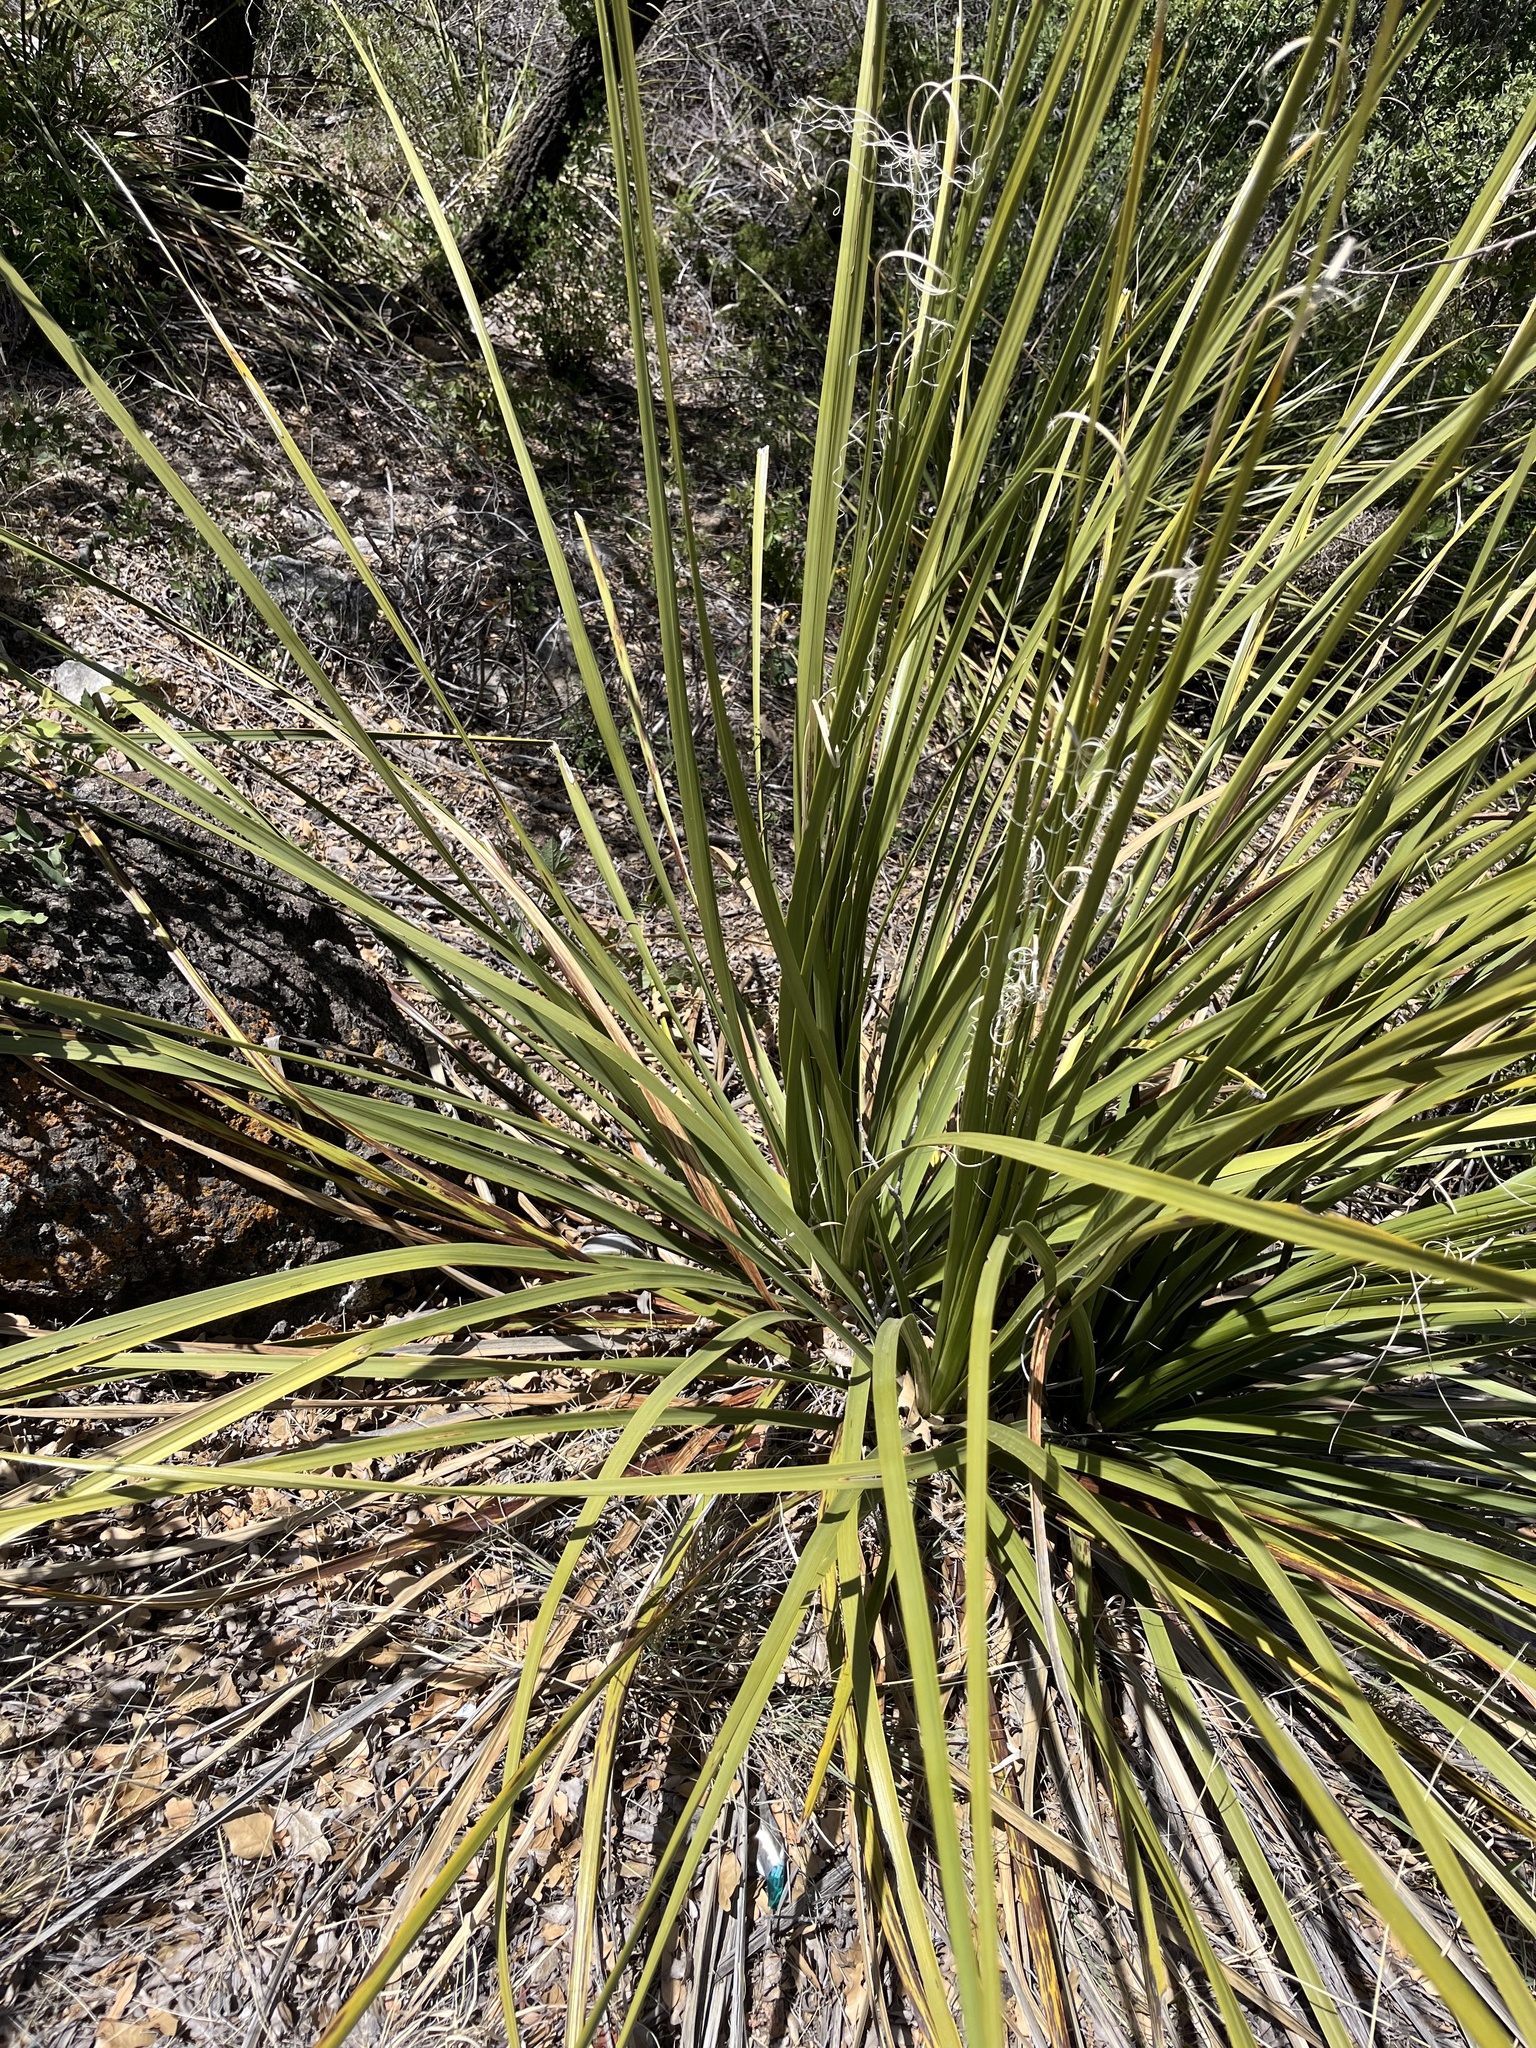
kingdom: Plantae
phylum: Tracheophyta
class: Liliopsida
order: Asparagales
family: Asparagaceae
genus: Nolina
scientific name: Nolina erumpens
